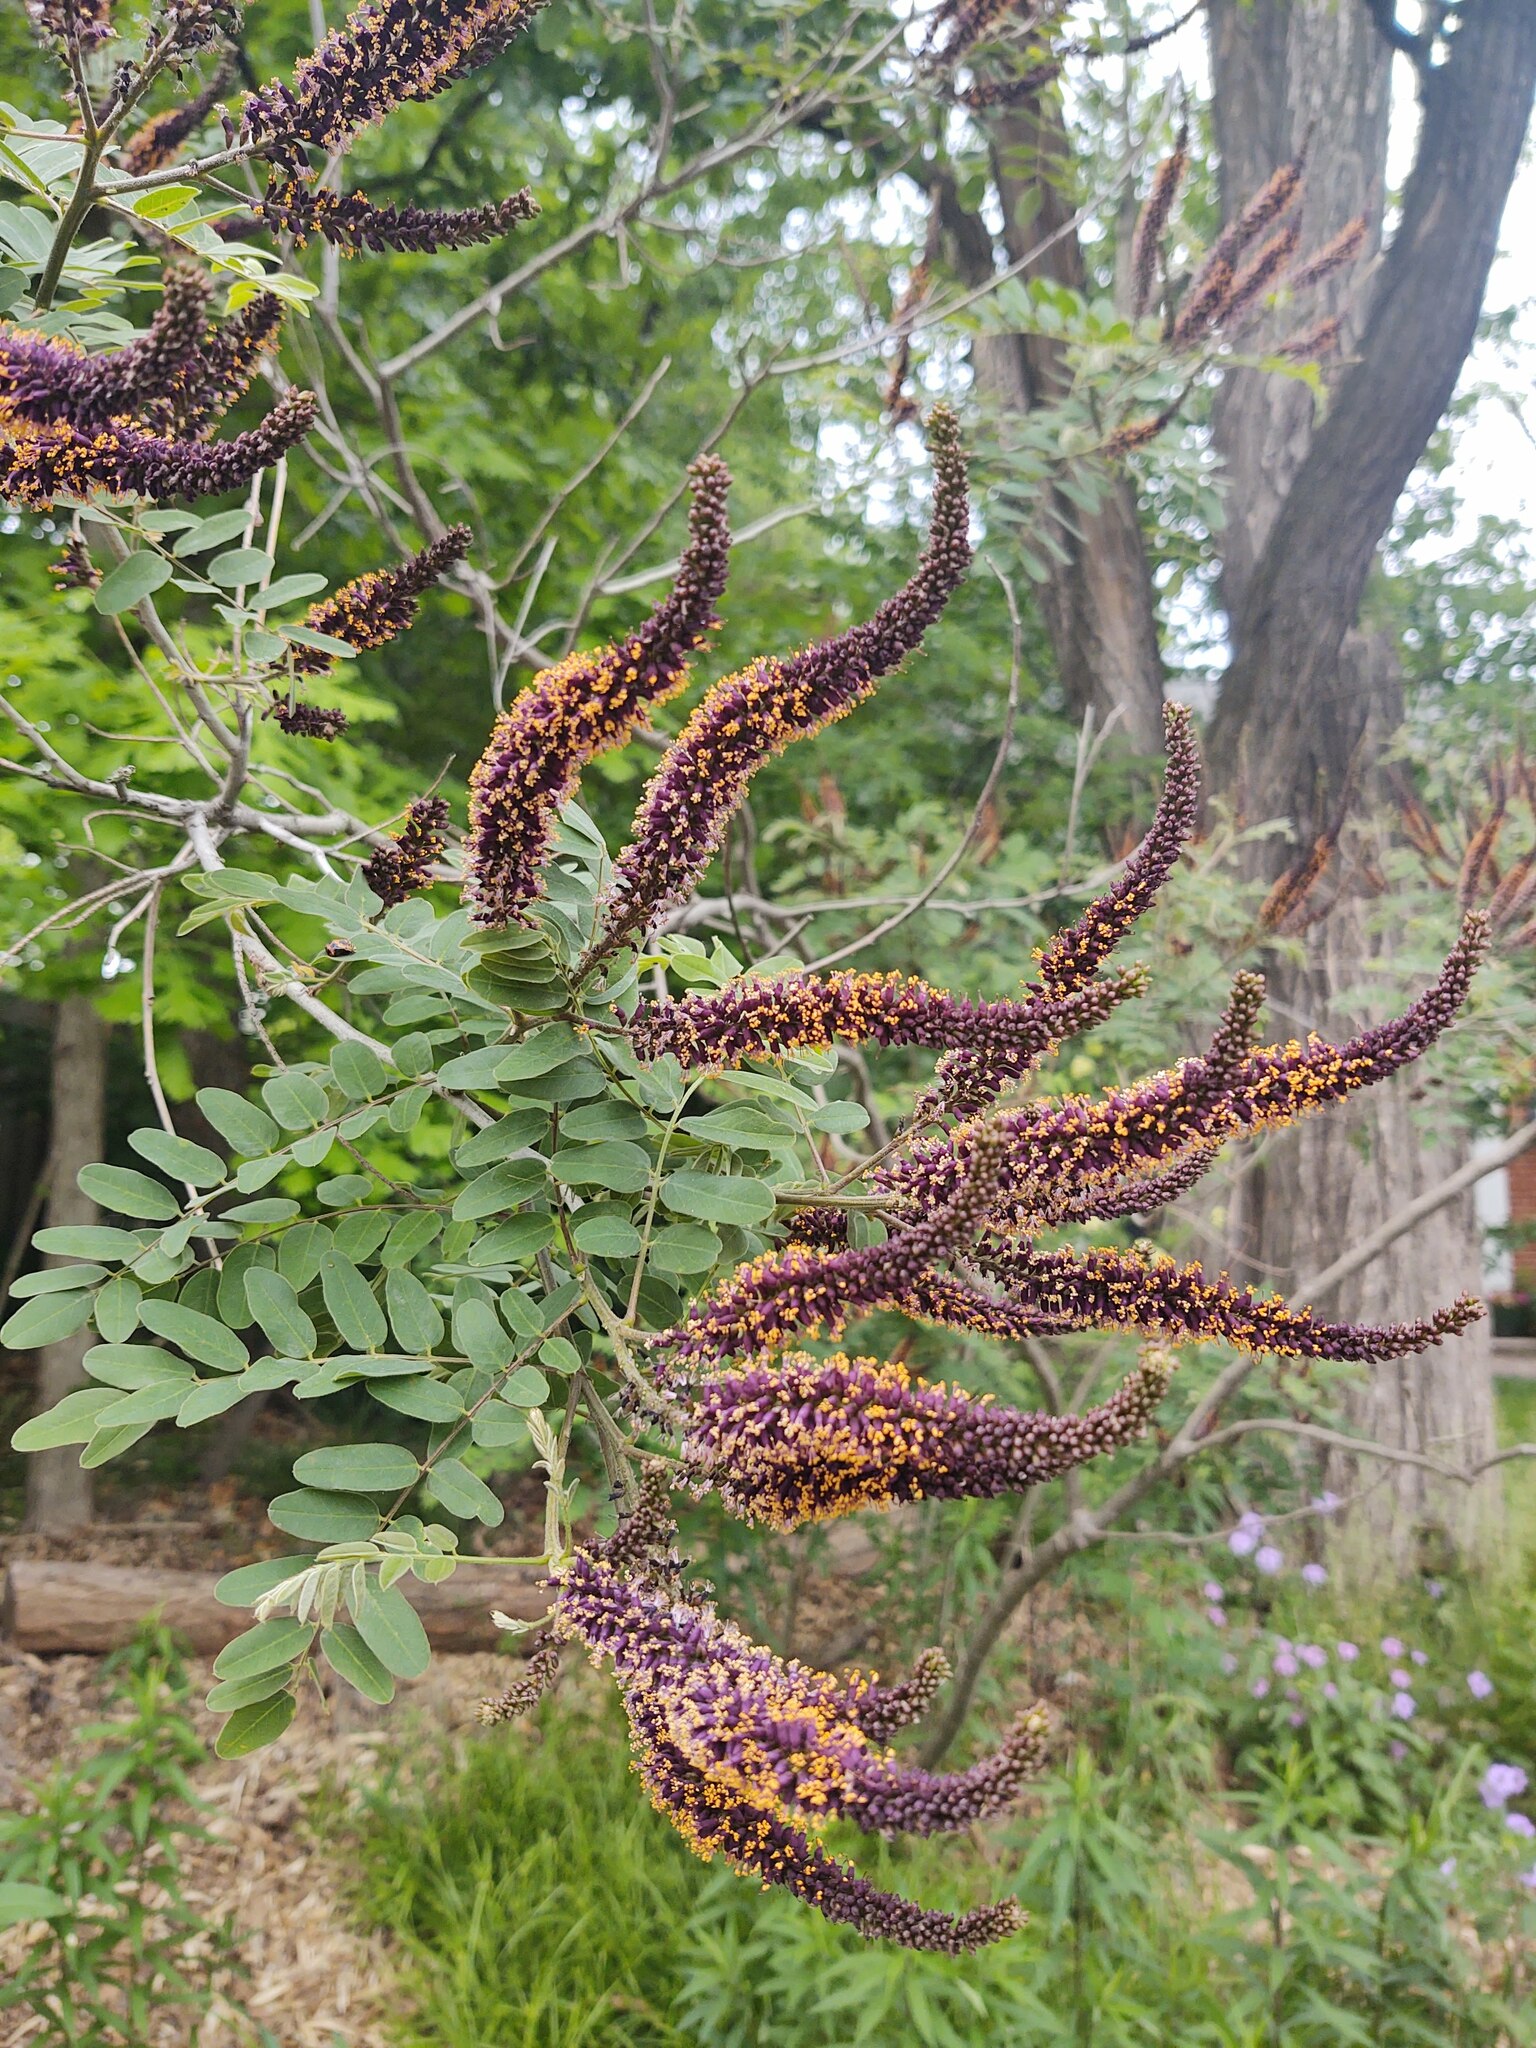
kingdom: Plantae
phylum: Tracheophyta
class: Magnoliopsida
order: Fabales
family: Fabaceae
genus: Amorpha
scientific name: Amorpha fruticosa
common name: False indigo
